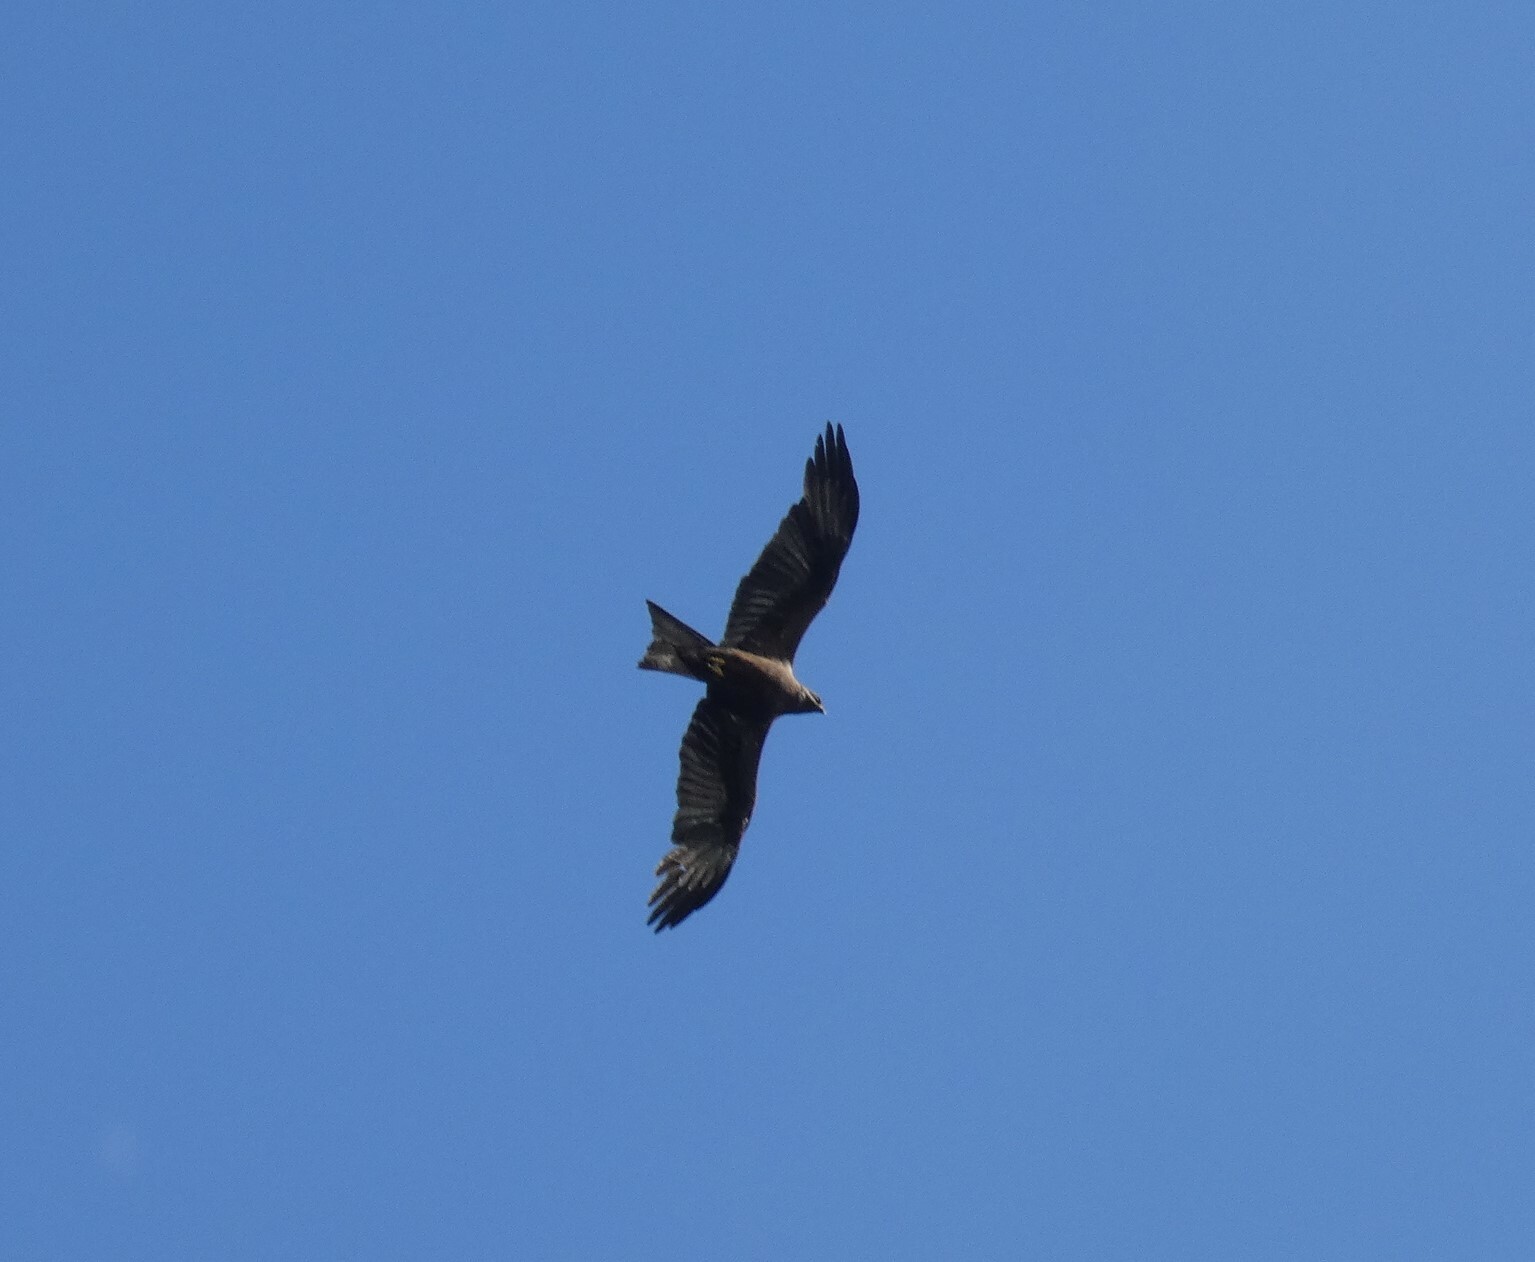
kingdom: Animalia
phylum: Chordata
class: Aves
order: Accipitriformes
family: Accipitridae
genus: Milvus
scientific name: Milvus migrans
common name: Black kite
